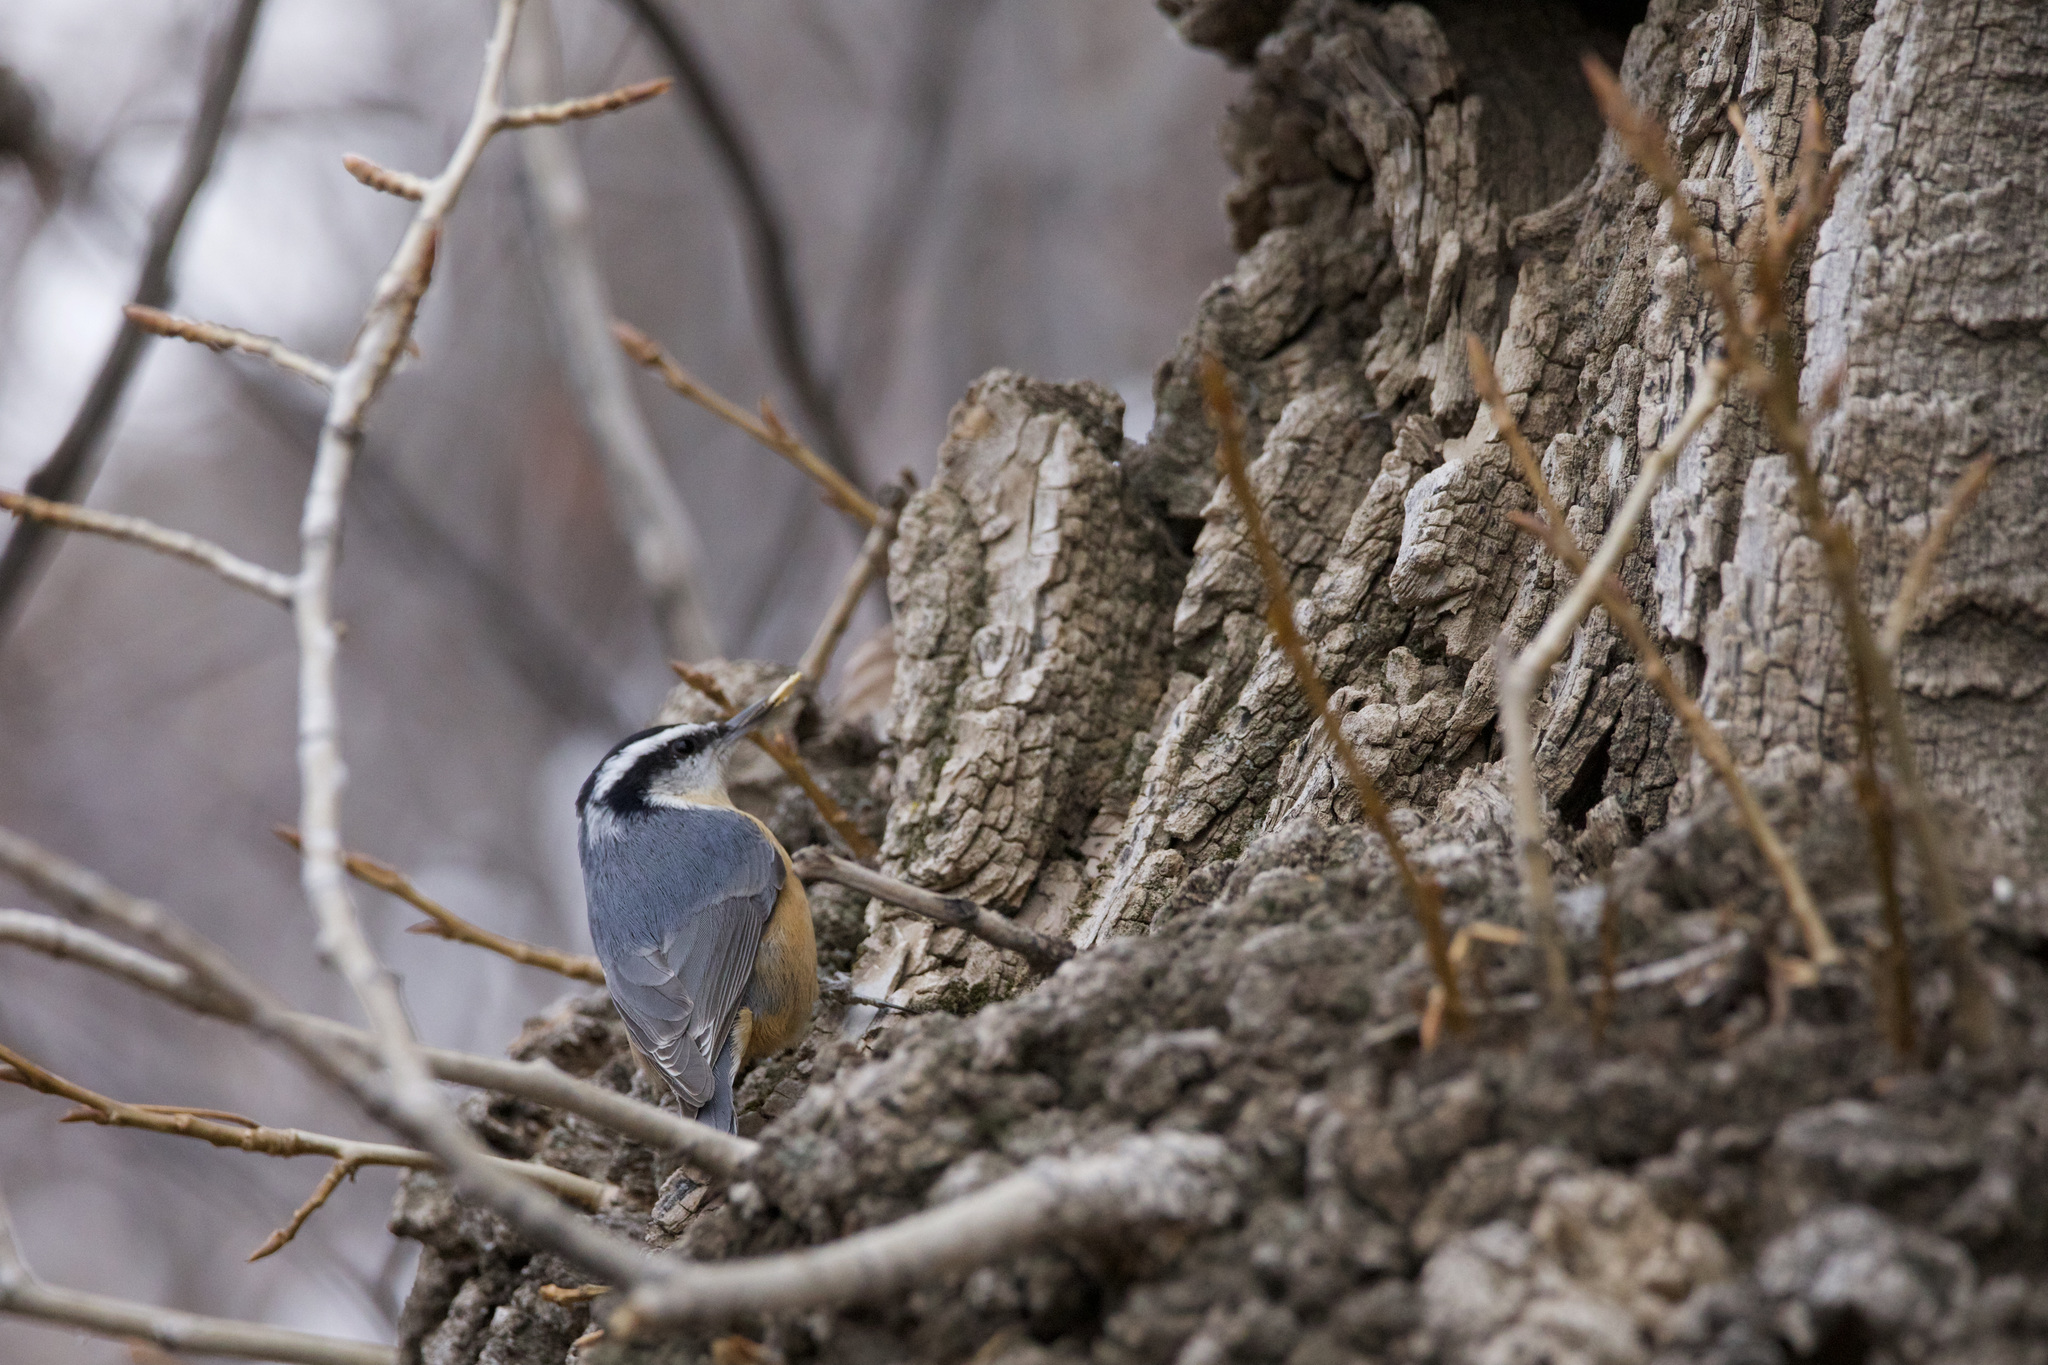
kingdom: Animalia
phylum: Chordata
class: Aves
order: Passeriformes
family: Sittidae
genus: Sitta
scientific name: Sitta canadensis
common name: Red-breasted nuthatch
